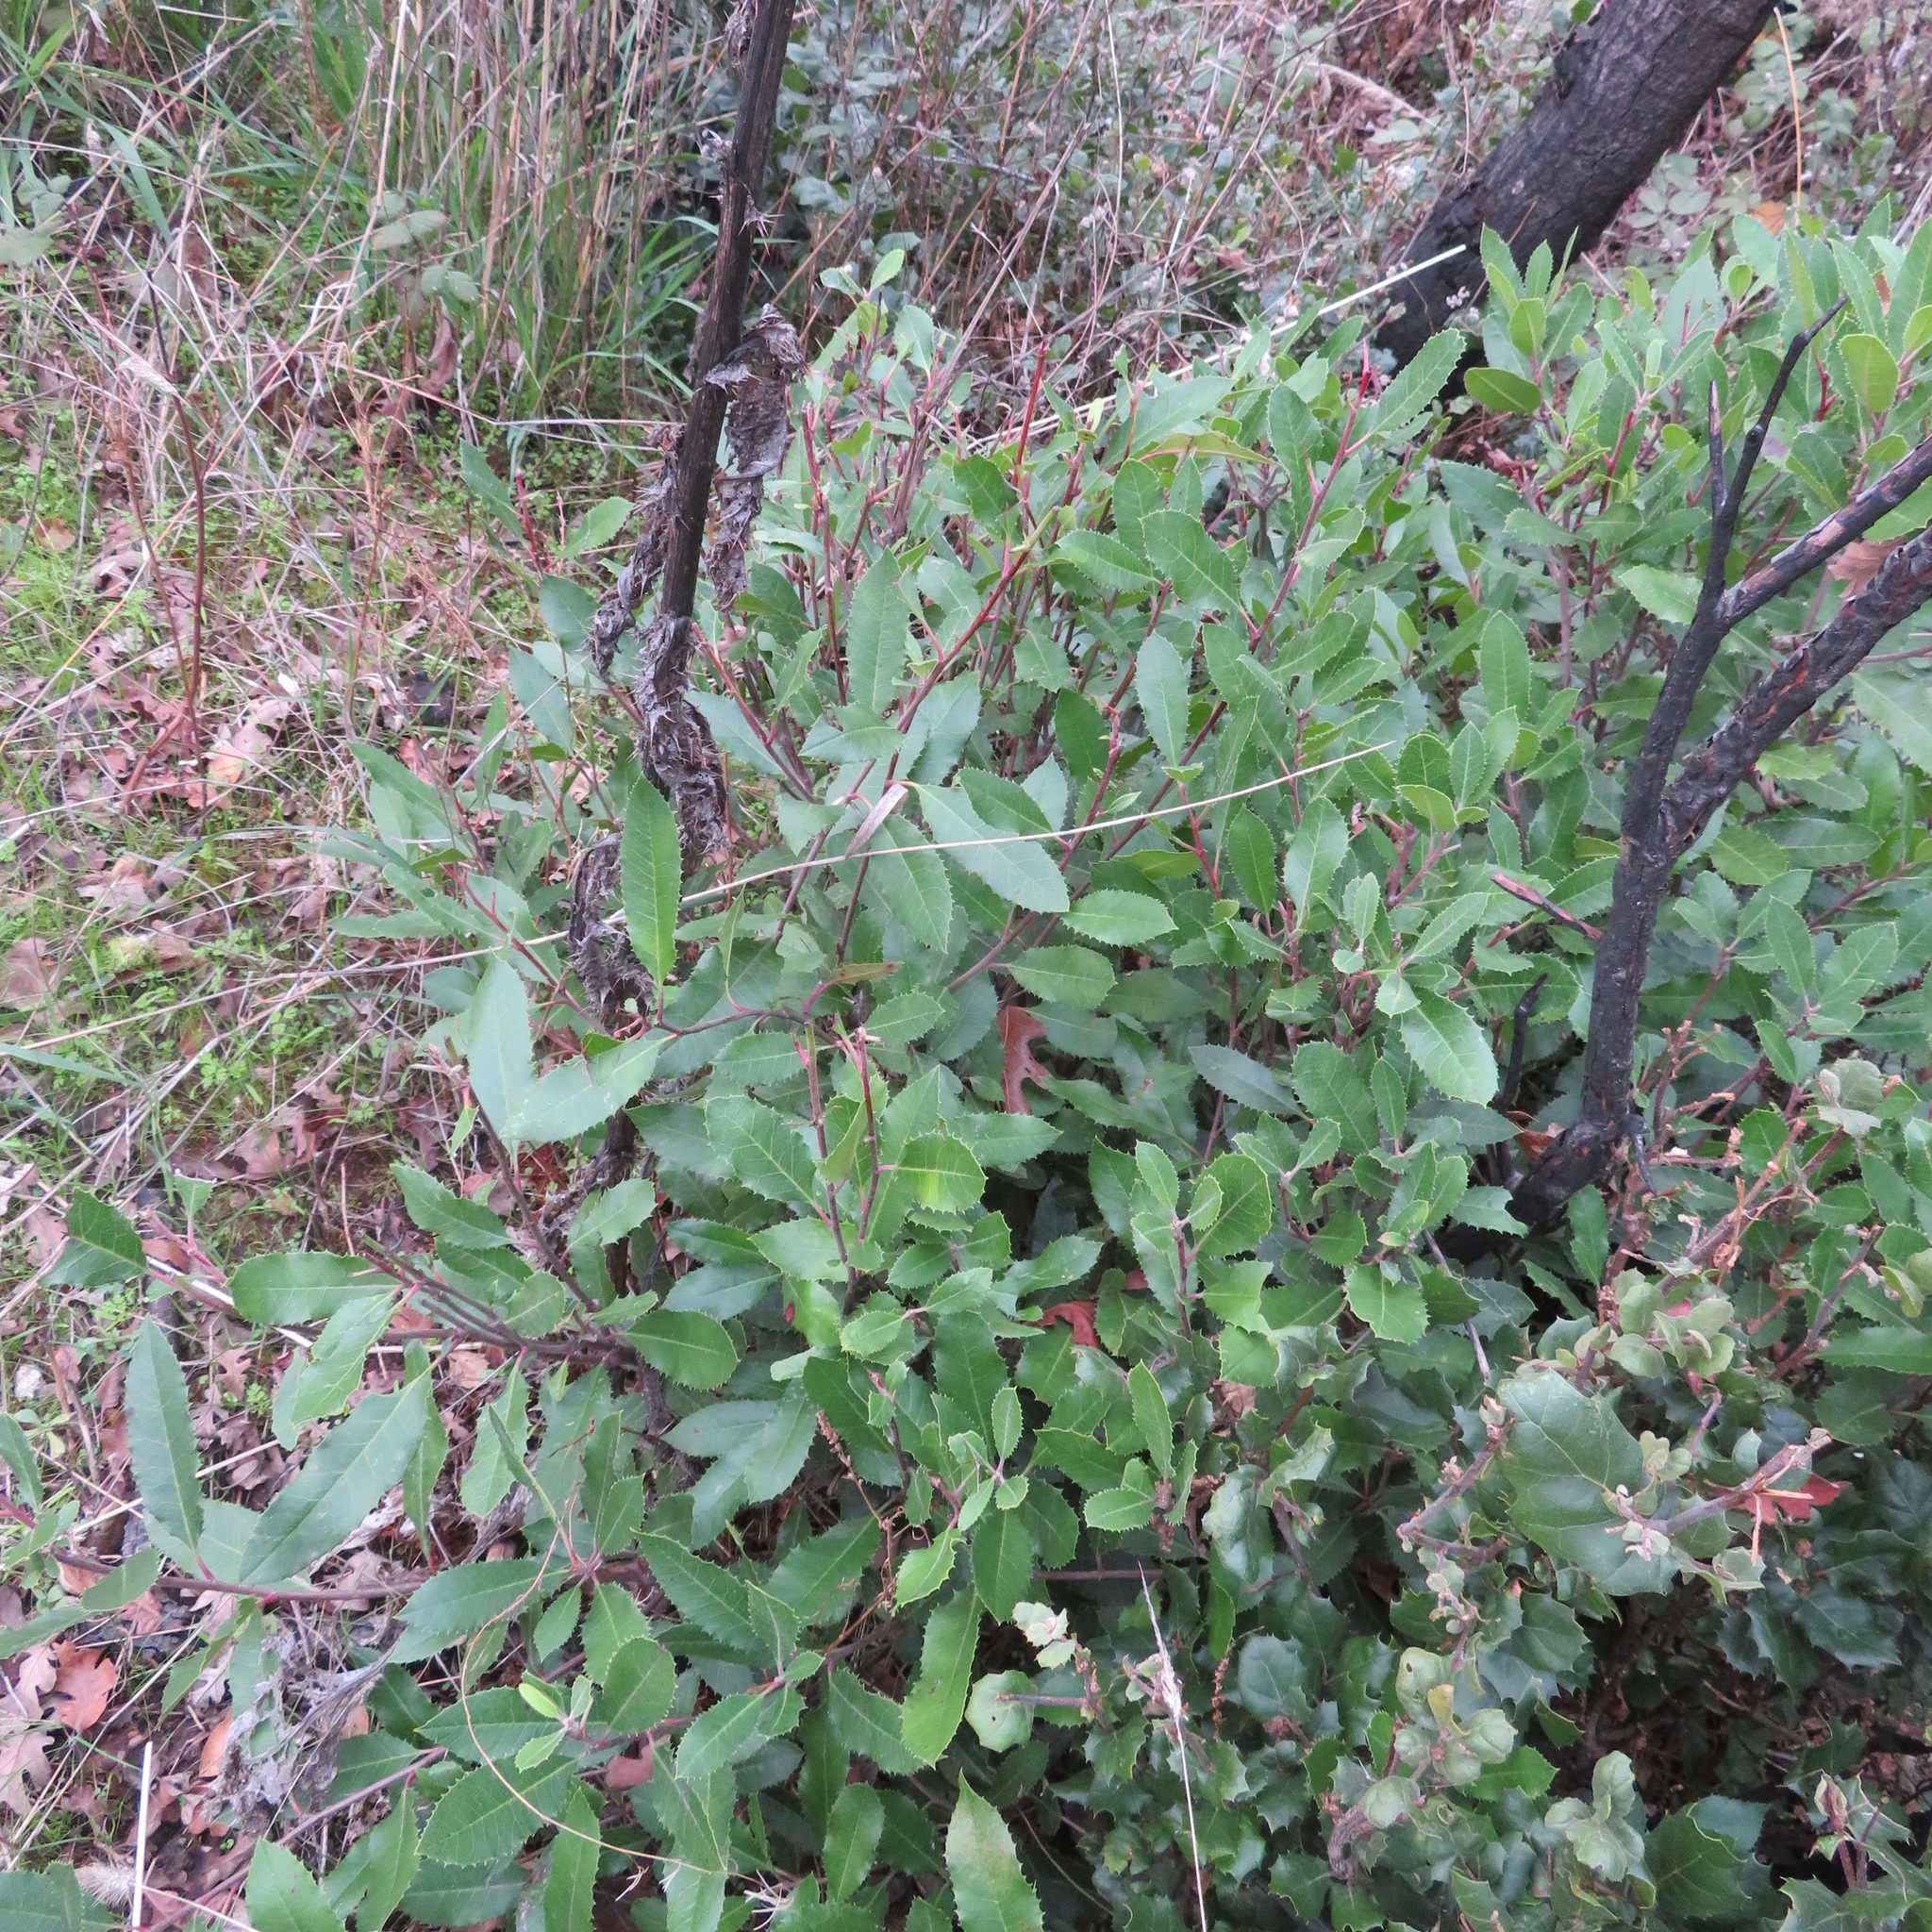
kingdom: Plantae
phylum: Tracheophyta
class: Magnoliopsida
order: Rosales
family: Rosaceae
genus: Heteromeles
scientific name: Heteromeles arbutifolia
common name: California-holly
